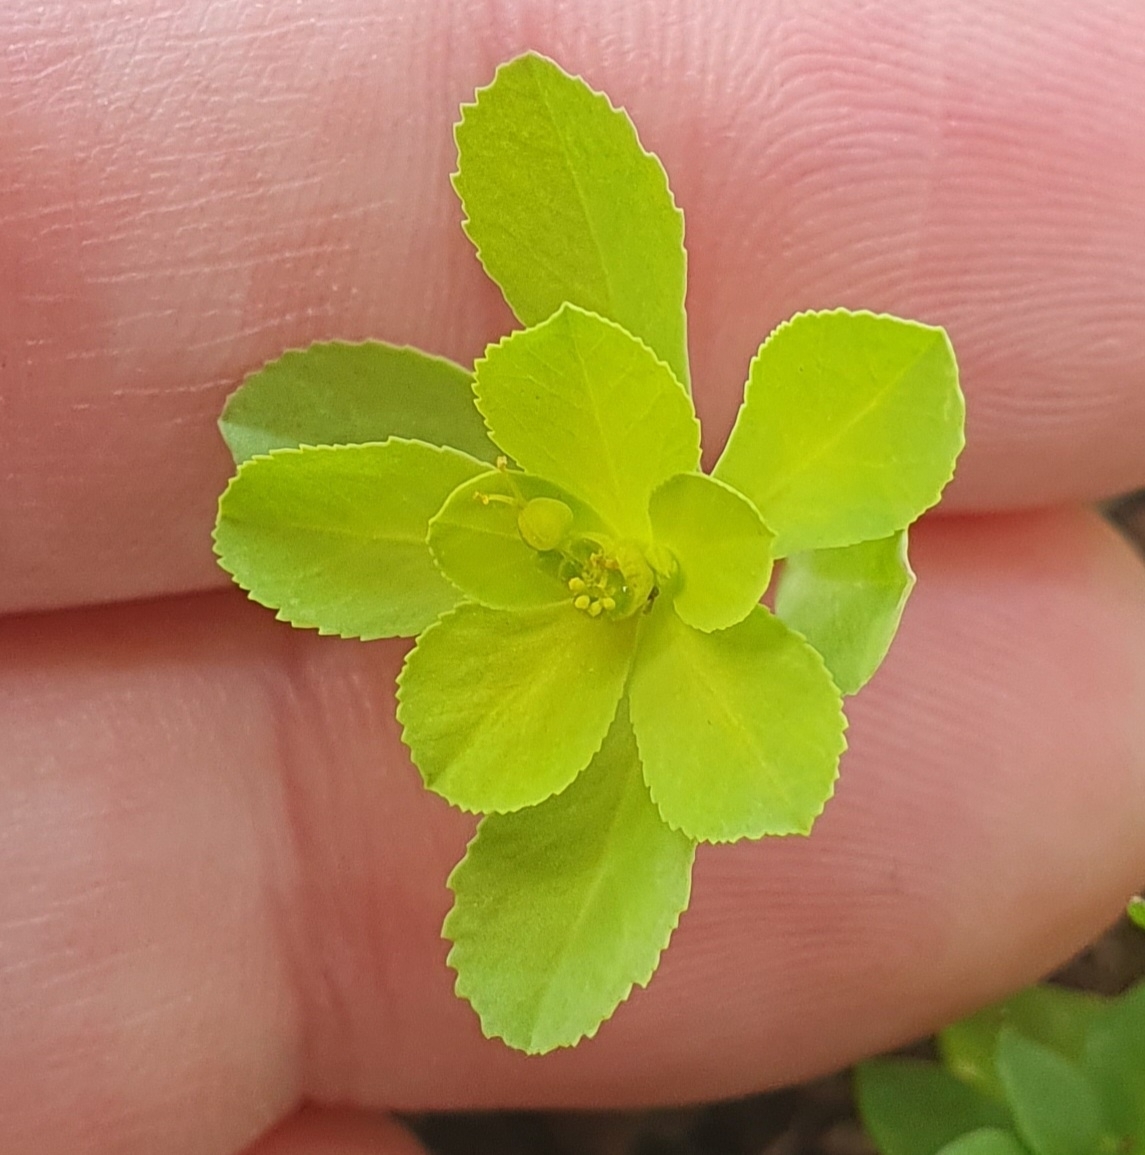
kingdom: Plantae
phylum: Tracheophyta
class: Magnoliopsida
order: Malpighiales
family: Euphorbiaceae
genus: Euphorbia
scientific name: Euphorbia helioscopia
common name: Sun spurge
